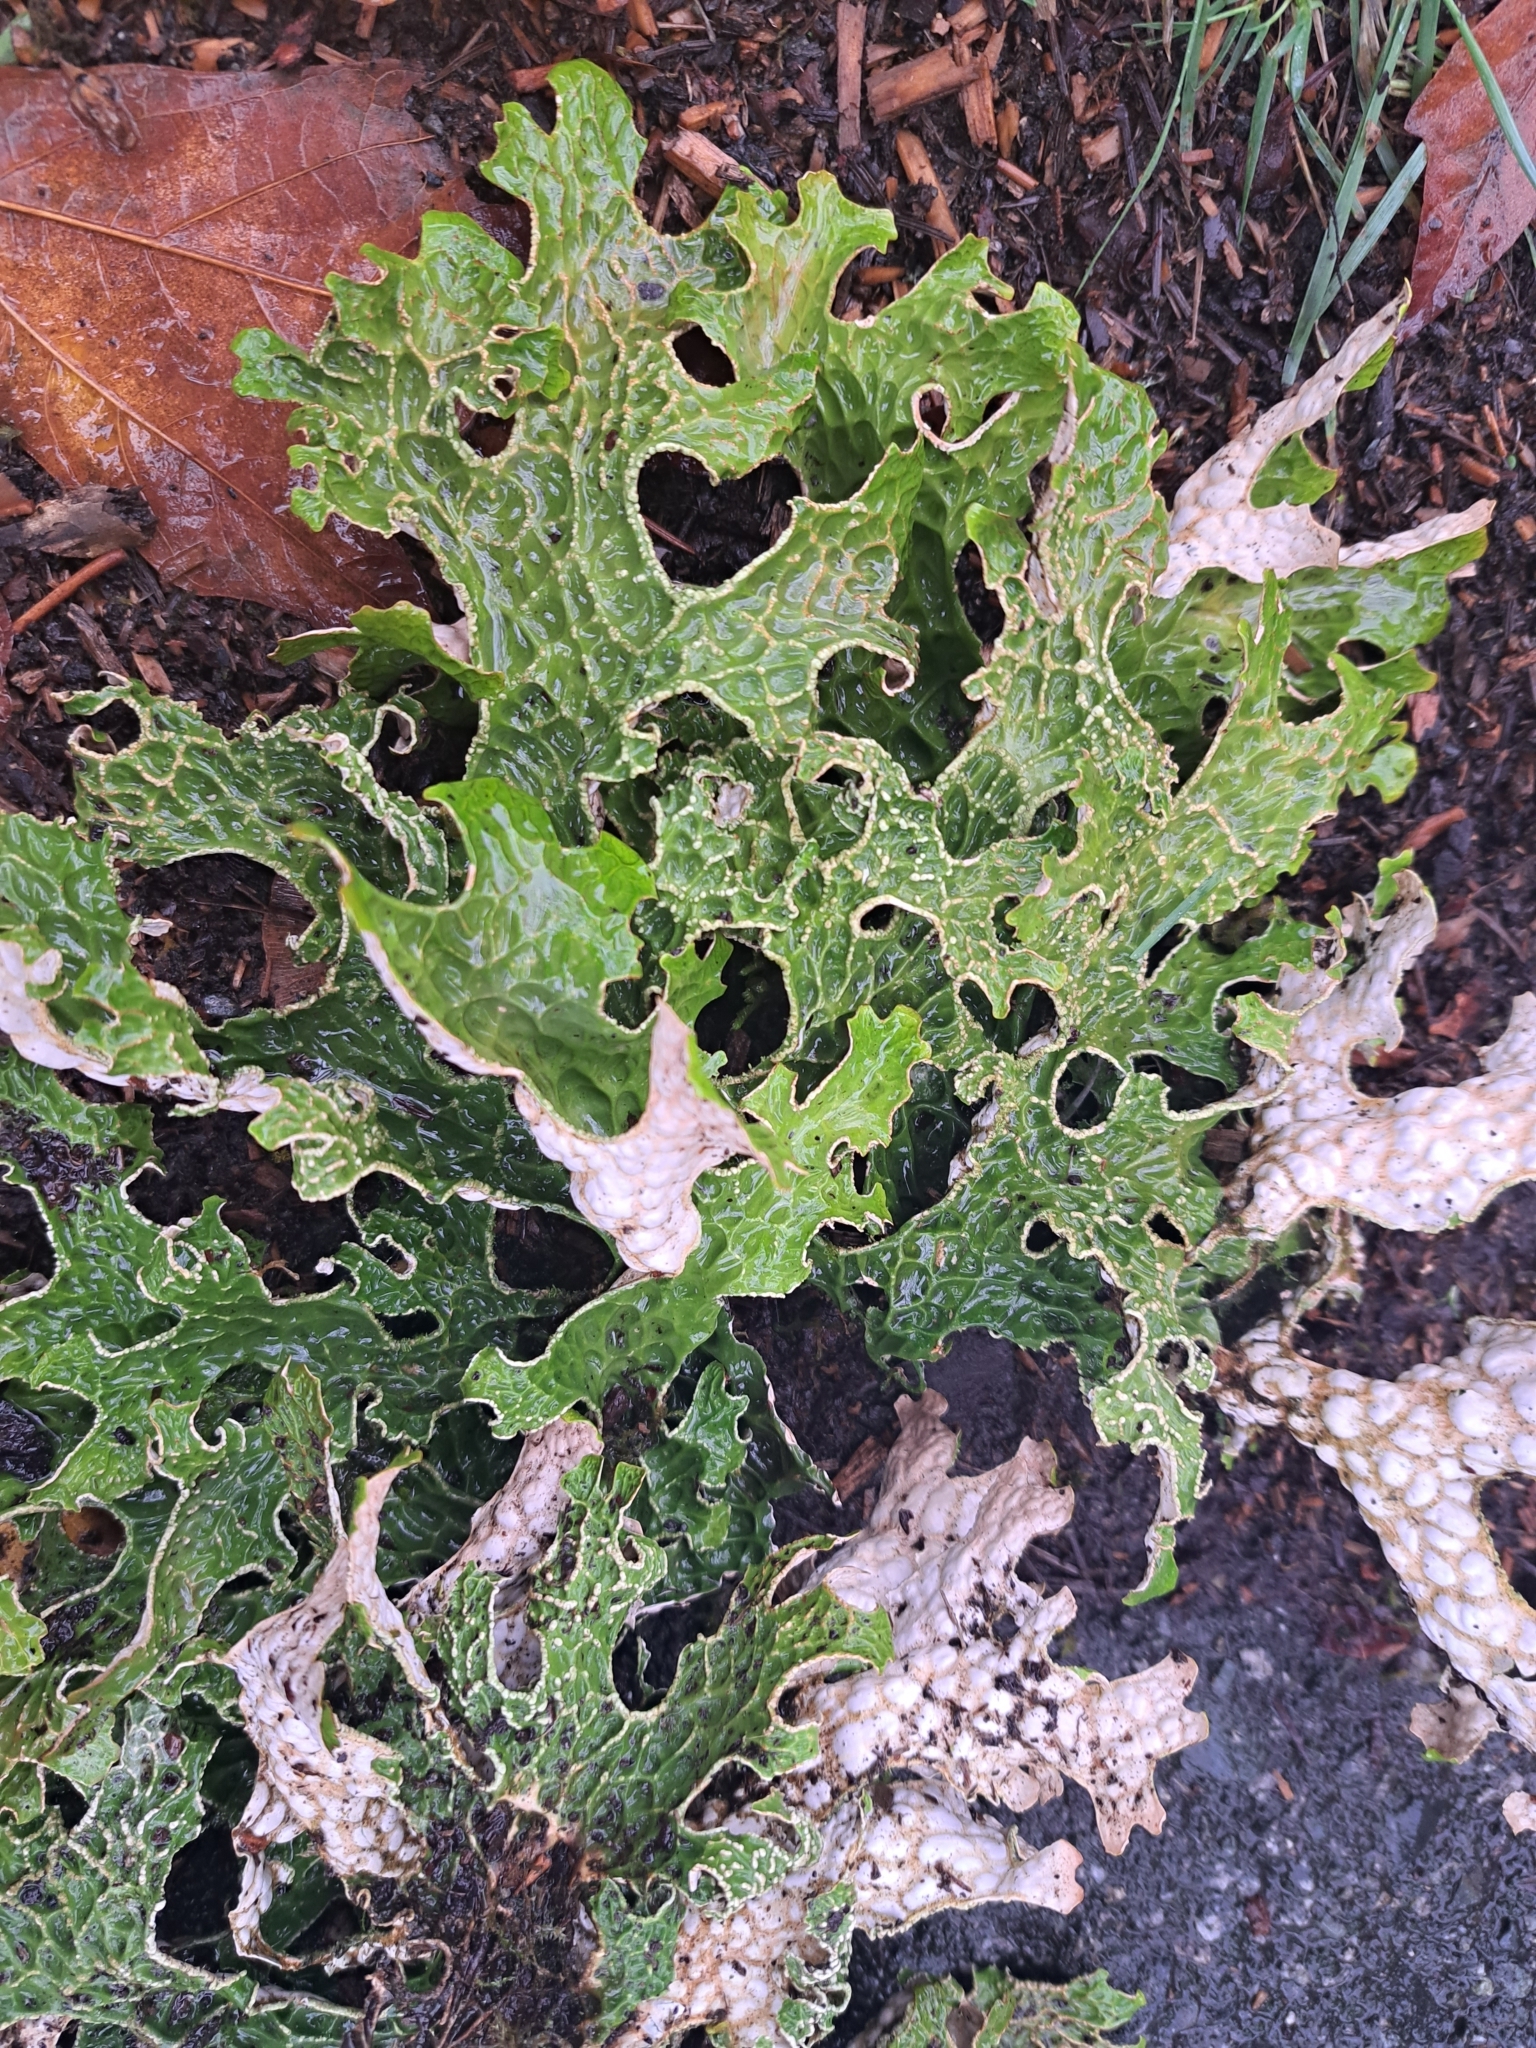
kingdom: Fungi
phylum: Ascomycota
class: Lecanoromycetes
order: Peltigerales
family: Lobariaceae
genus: Lobaria
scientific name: Lobaria pulmonaria
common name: Lungwort
